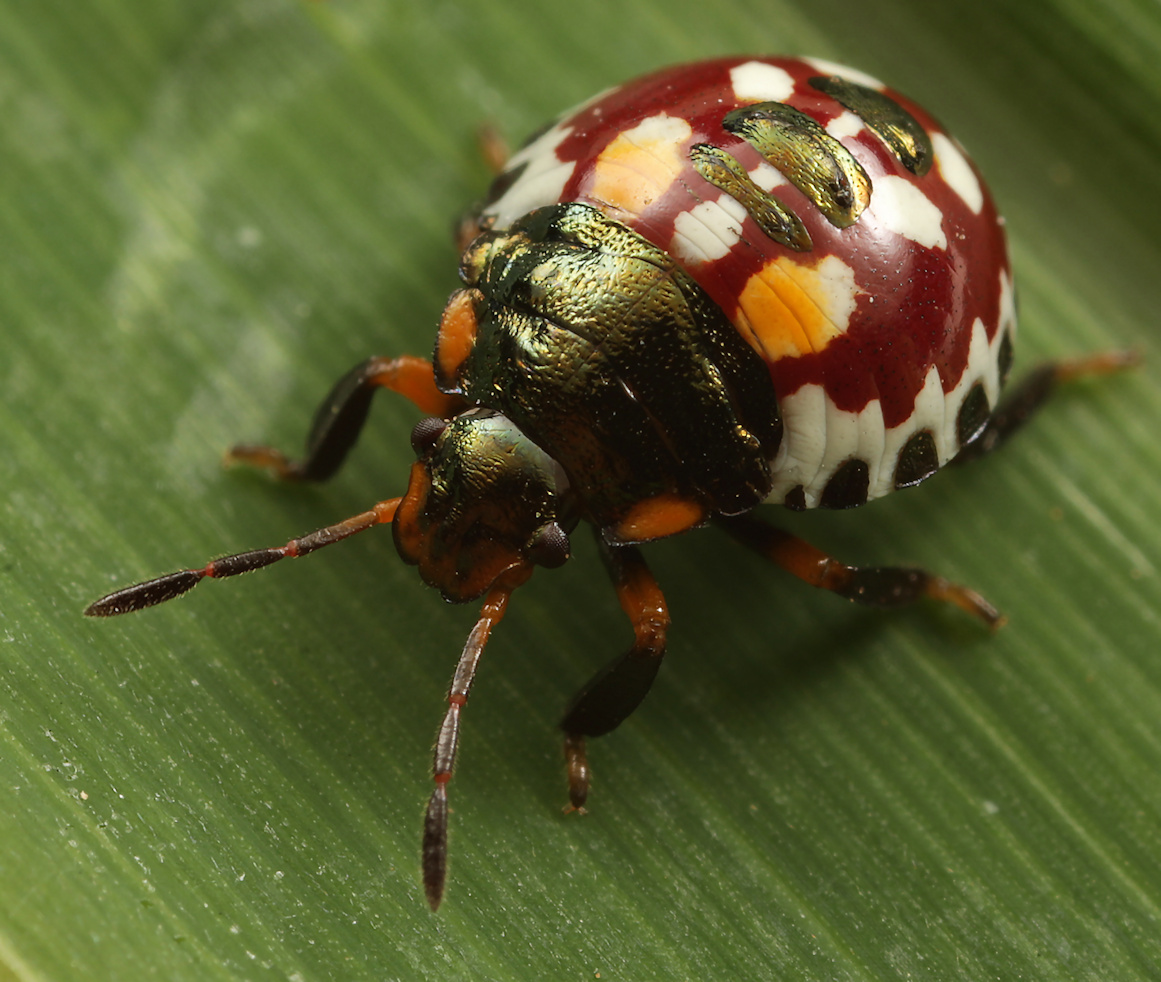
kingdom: Animalia
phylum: Arthropoda
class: Insecta
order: Hemiptera
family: Pentatomidae
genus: Caura
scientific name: Caura rufiventris
